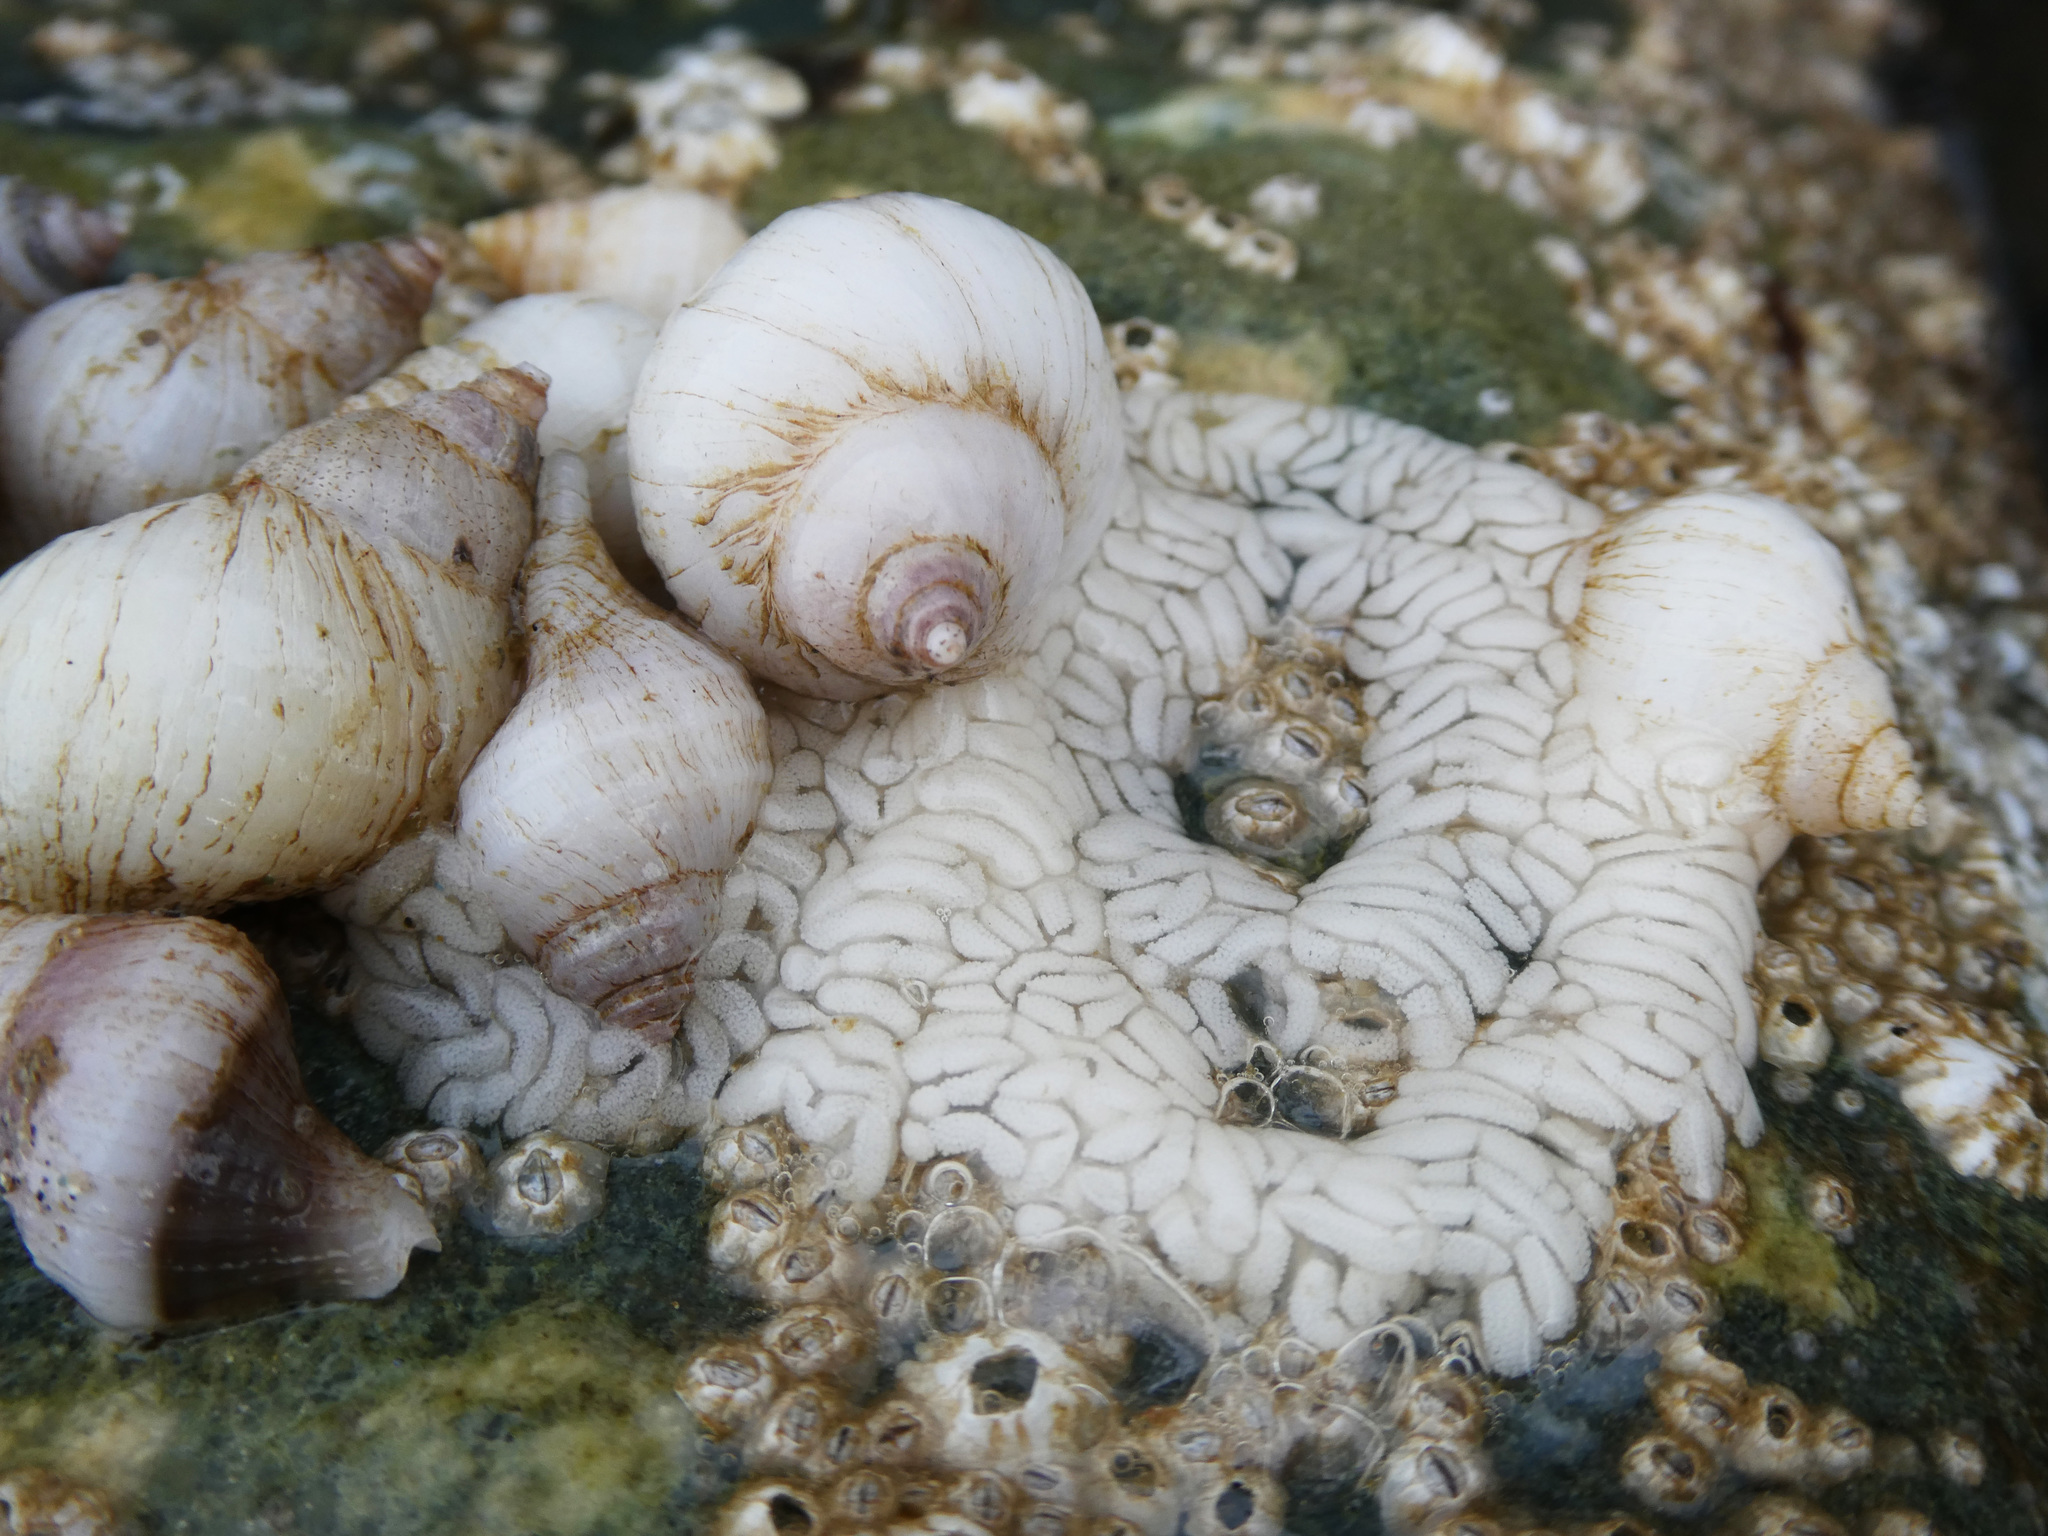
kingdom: Animalia
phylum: Mollusca
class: Gastropoda
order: Neogastropoda
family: Muricidae
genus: Nucella
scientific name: Nucella lamellosa
